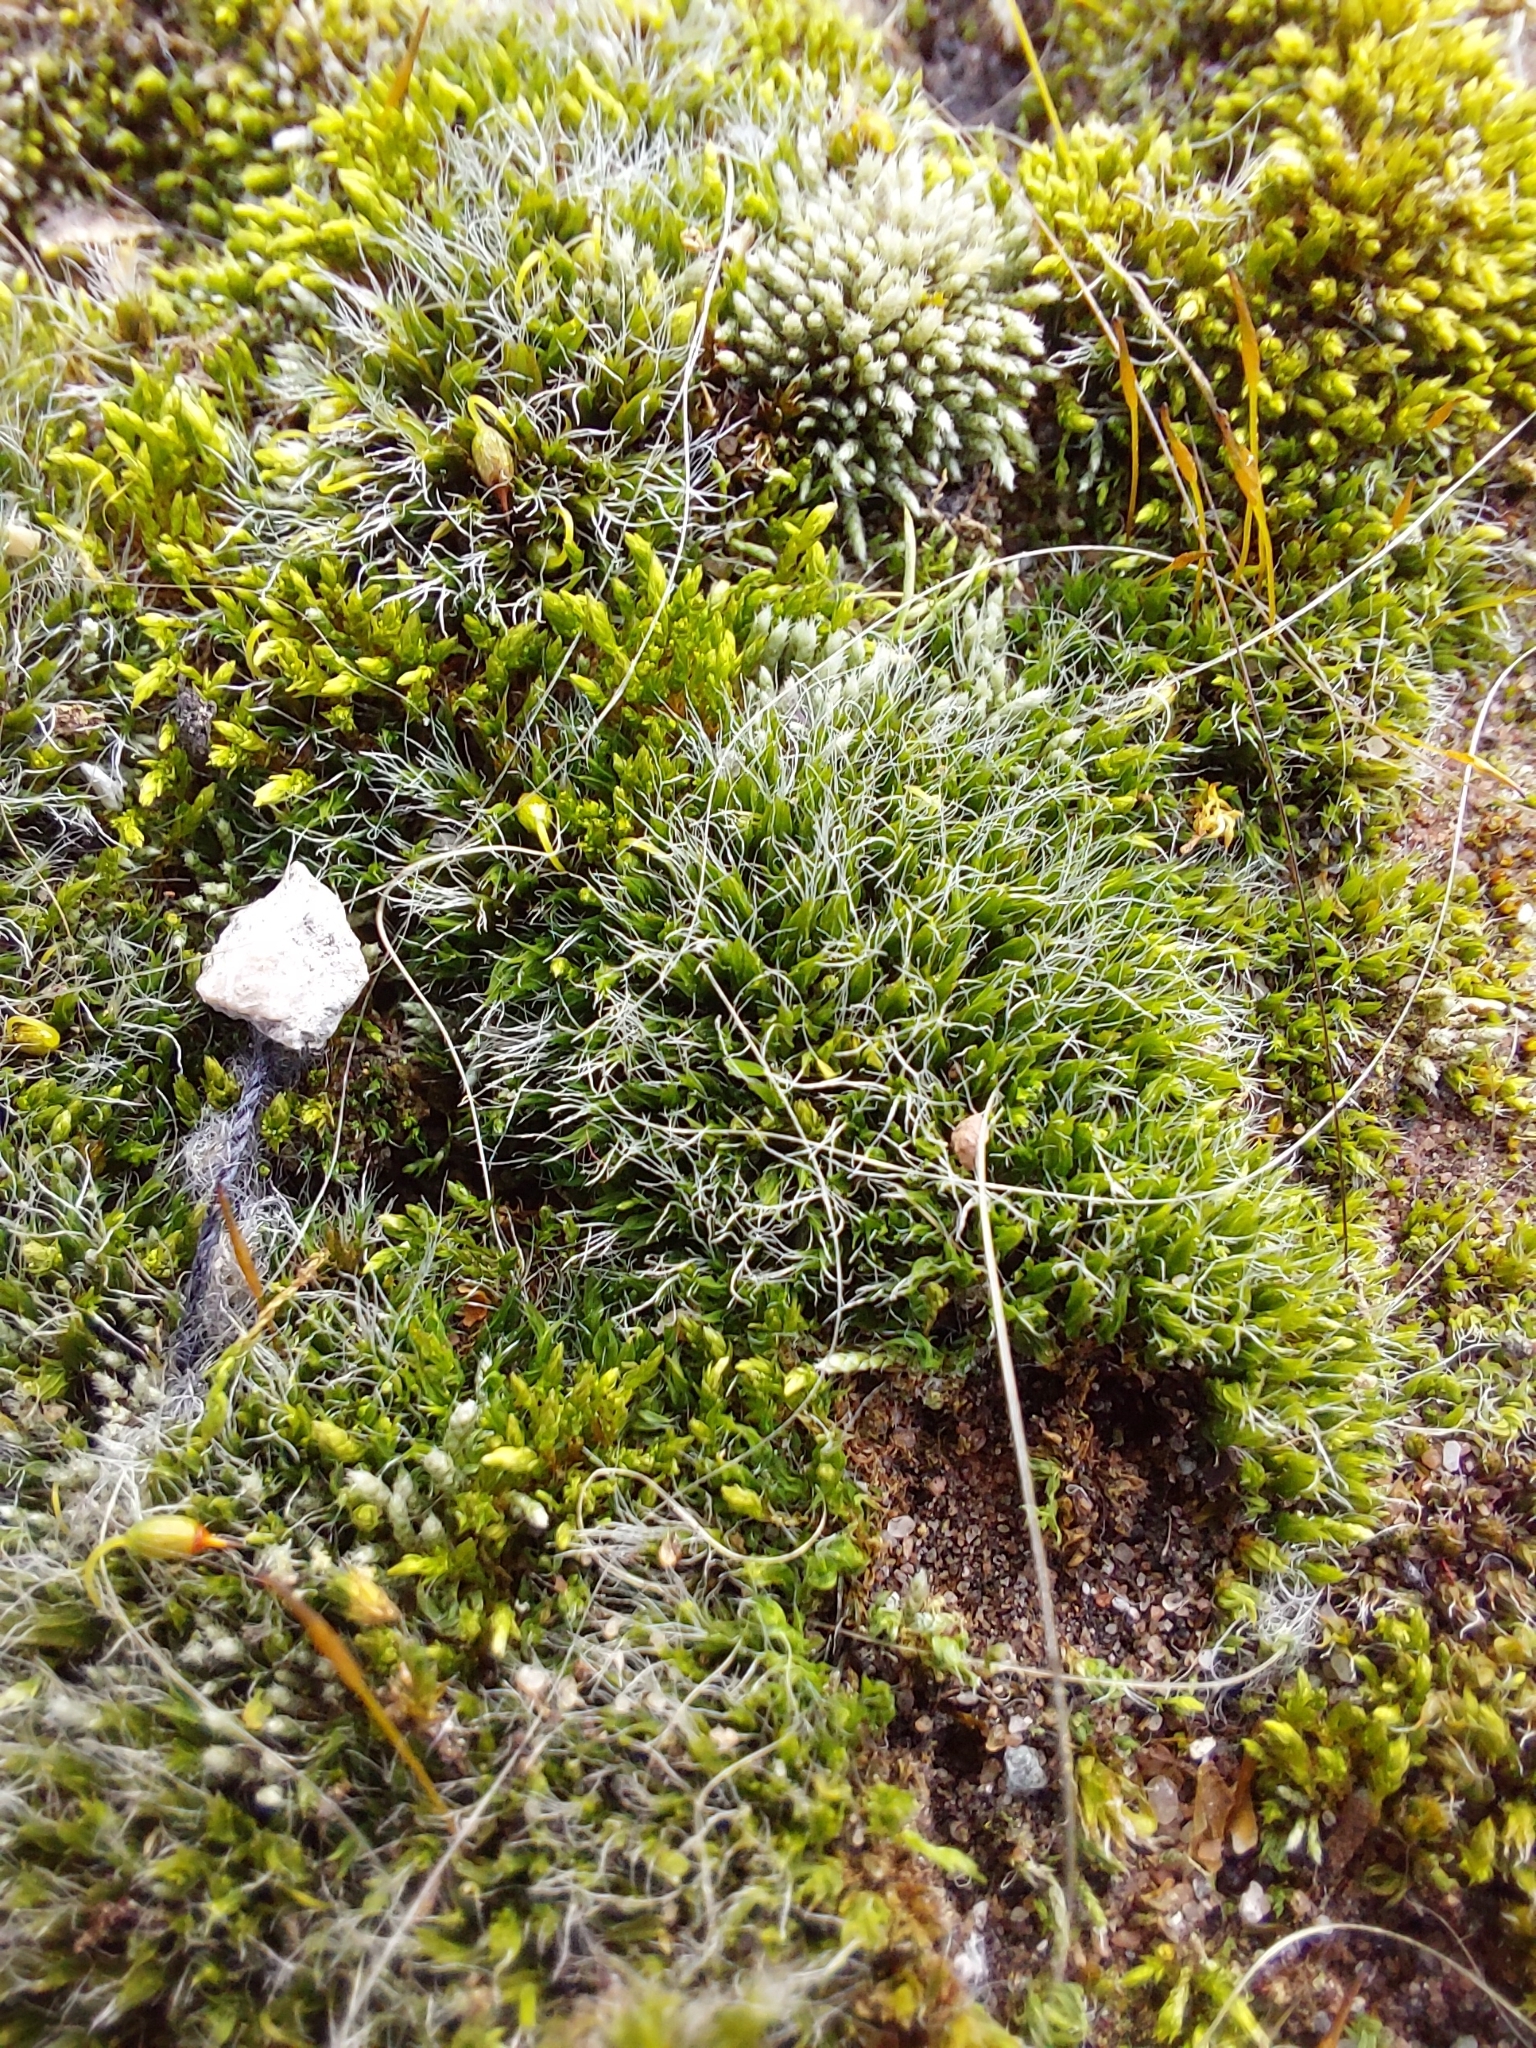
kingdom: Plantae
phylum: Bryophyta
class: Bryopsida
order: Grimmiales
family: Grimmiaceae
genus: Grimmia
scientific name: Grimmia pulvinata
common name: Grey-cushioned grimmia
